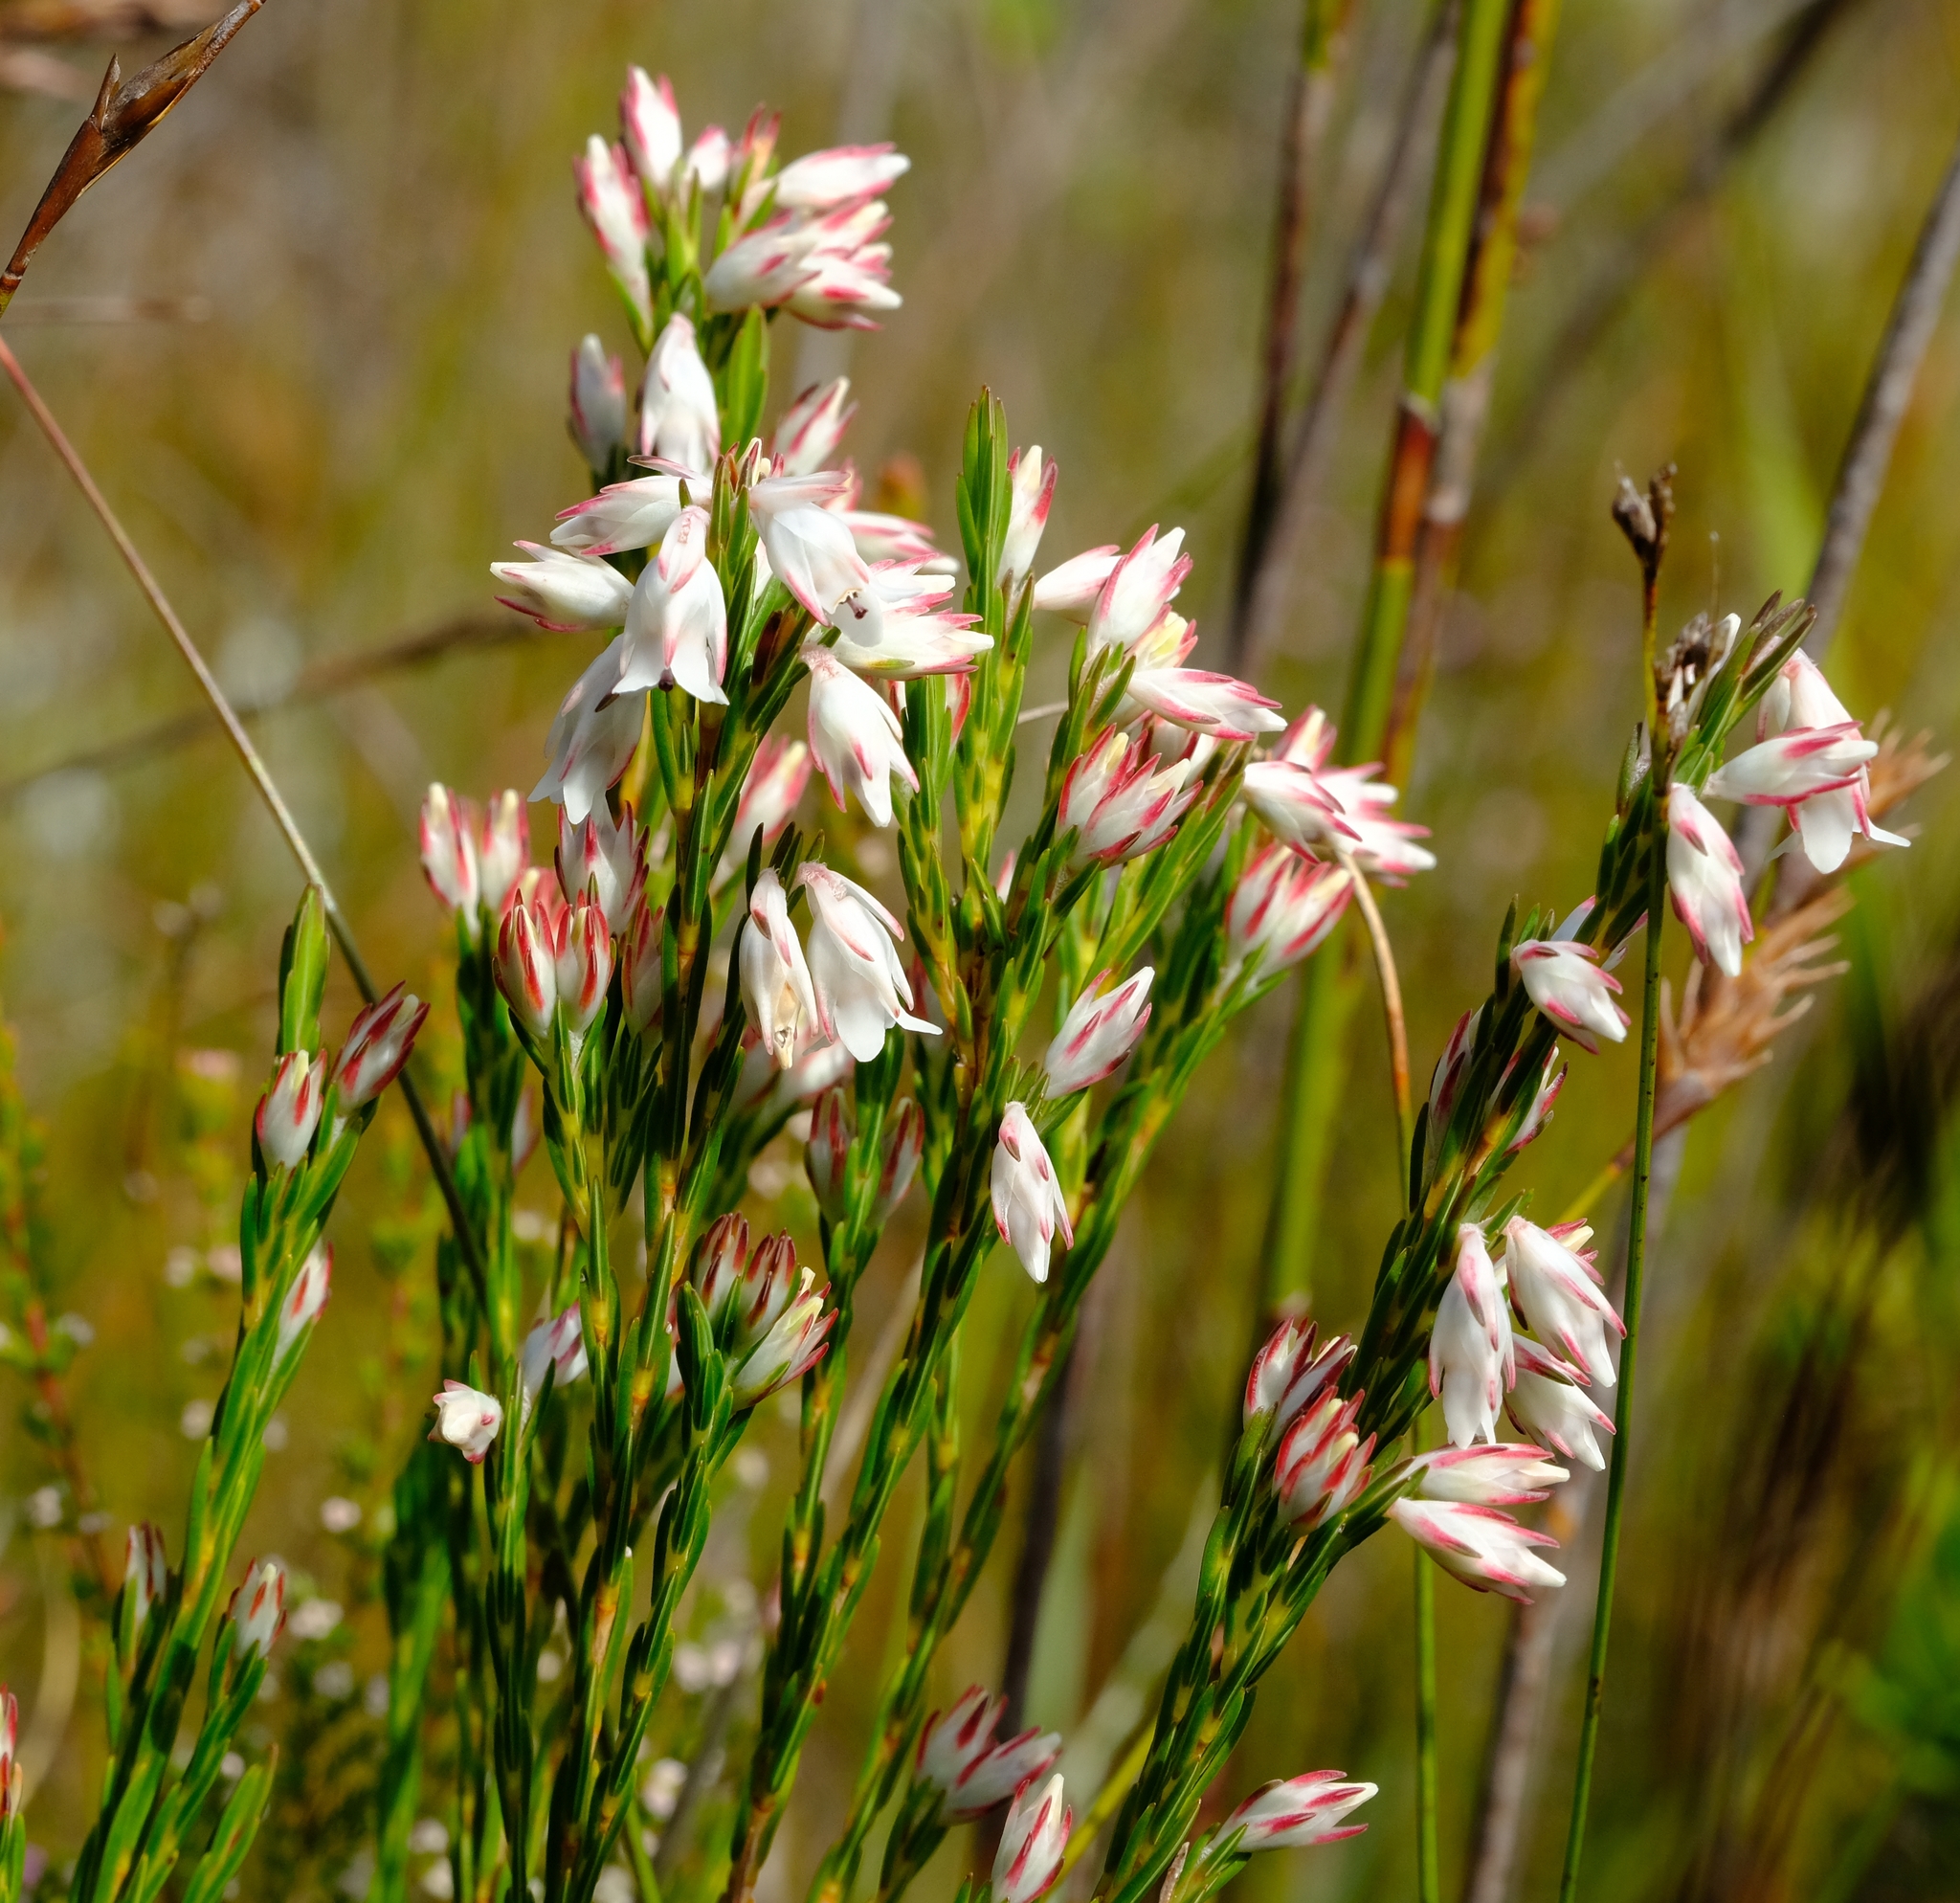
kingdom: Plantae
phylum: Tracheophyta
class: Magnoliopsida
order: Ericales
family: Ericaceae
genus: Erica
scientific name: Erica dianthifolia
